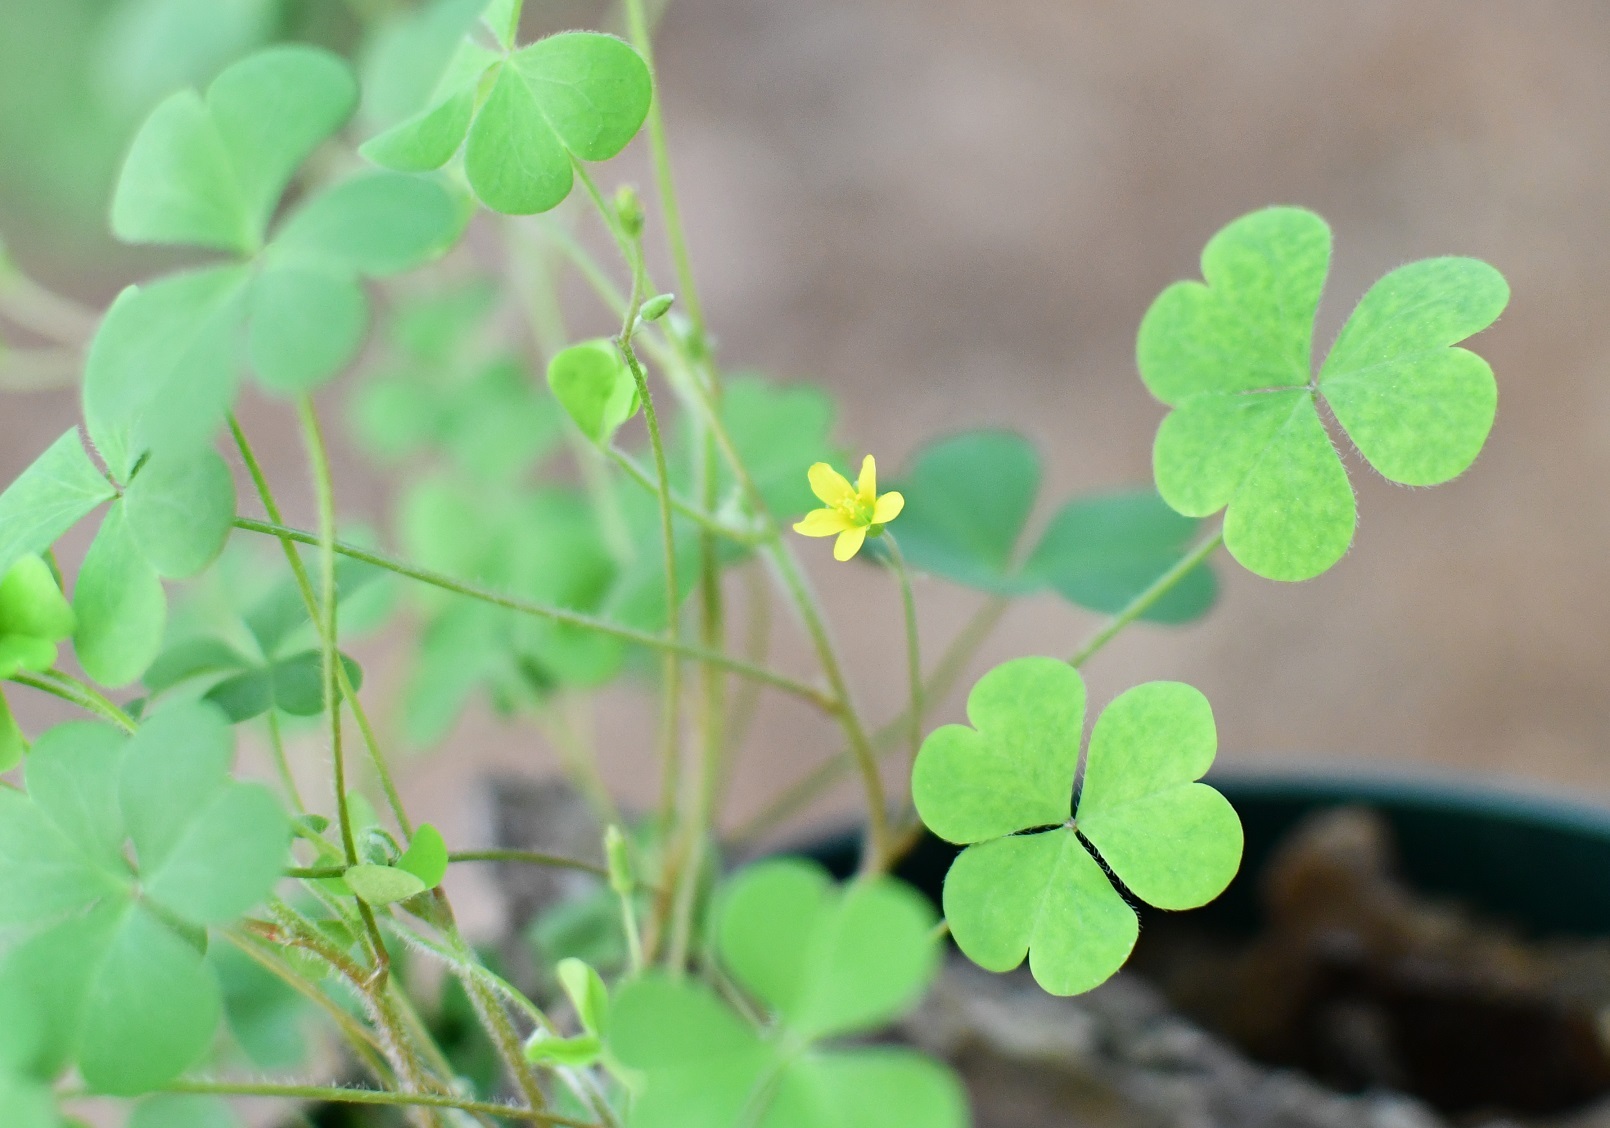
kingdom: Plantae
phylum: Tracheophyta
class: Magnoliopsida
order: Oxalidales
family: Oxalidaceae
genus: Oxalis
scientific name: Oxalis corniculata
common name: Procumbent yellow-sorrel
